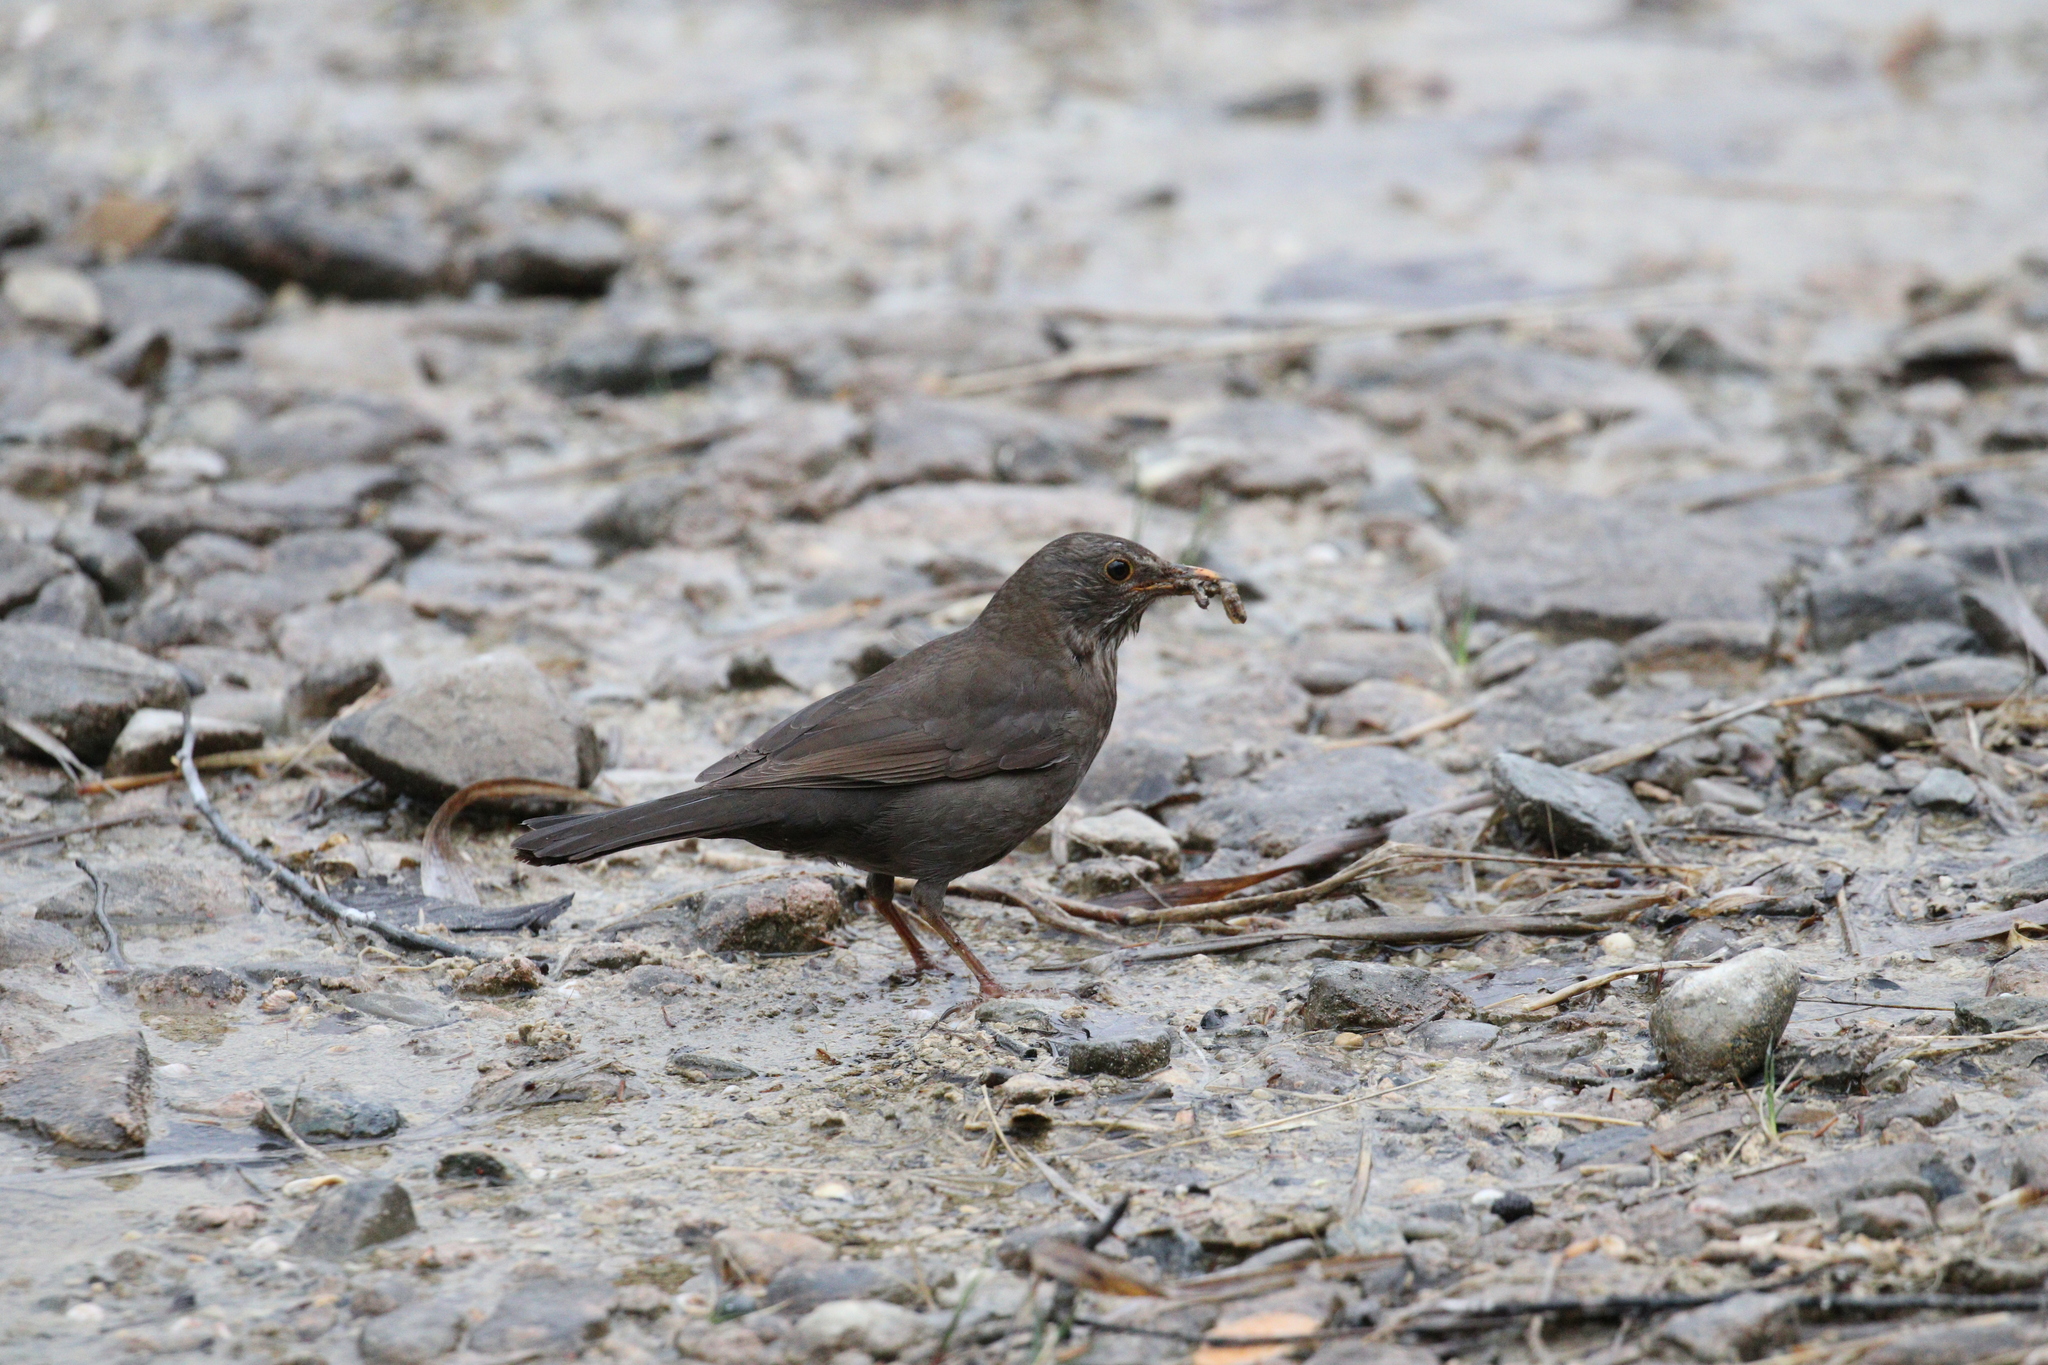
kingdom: Animalia
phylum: Chordata
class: Aves
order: Passeriformes
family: Turdidae
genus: Turdus
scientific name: Turdus merula
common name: Common blackbird
